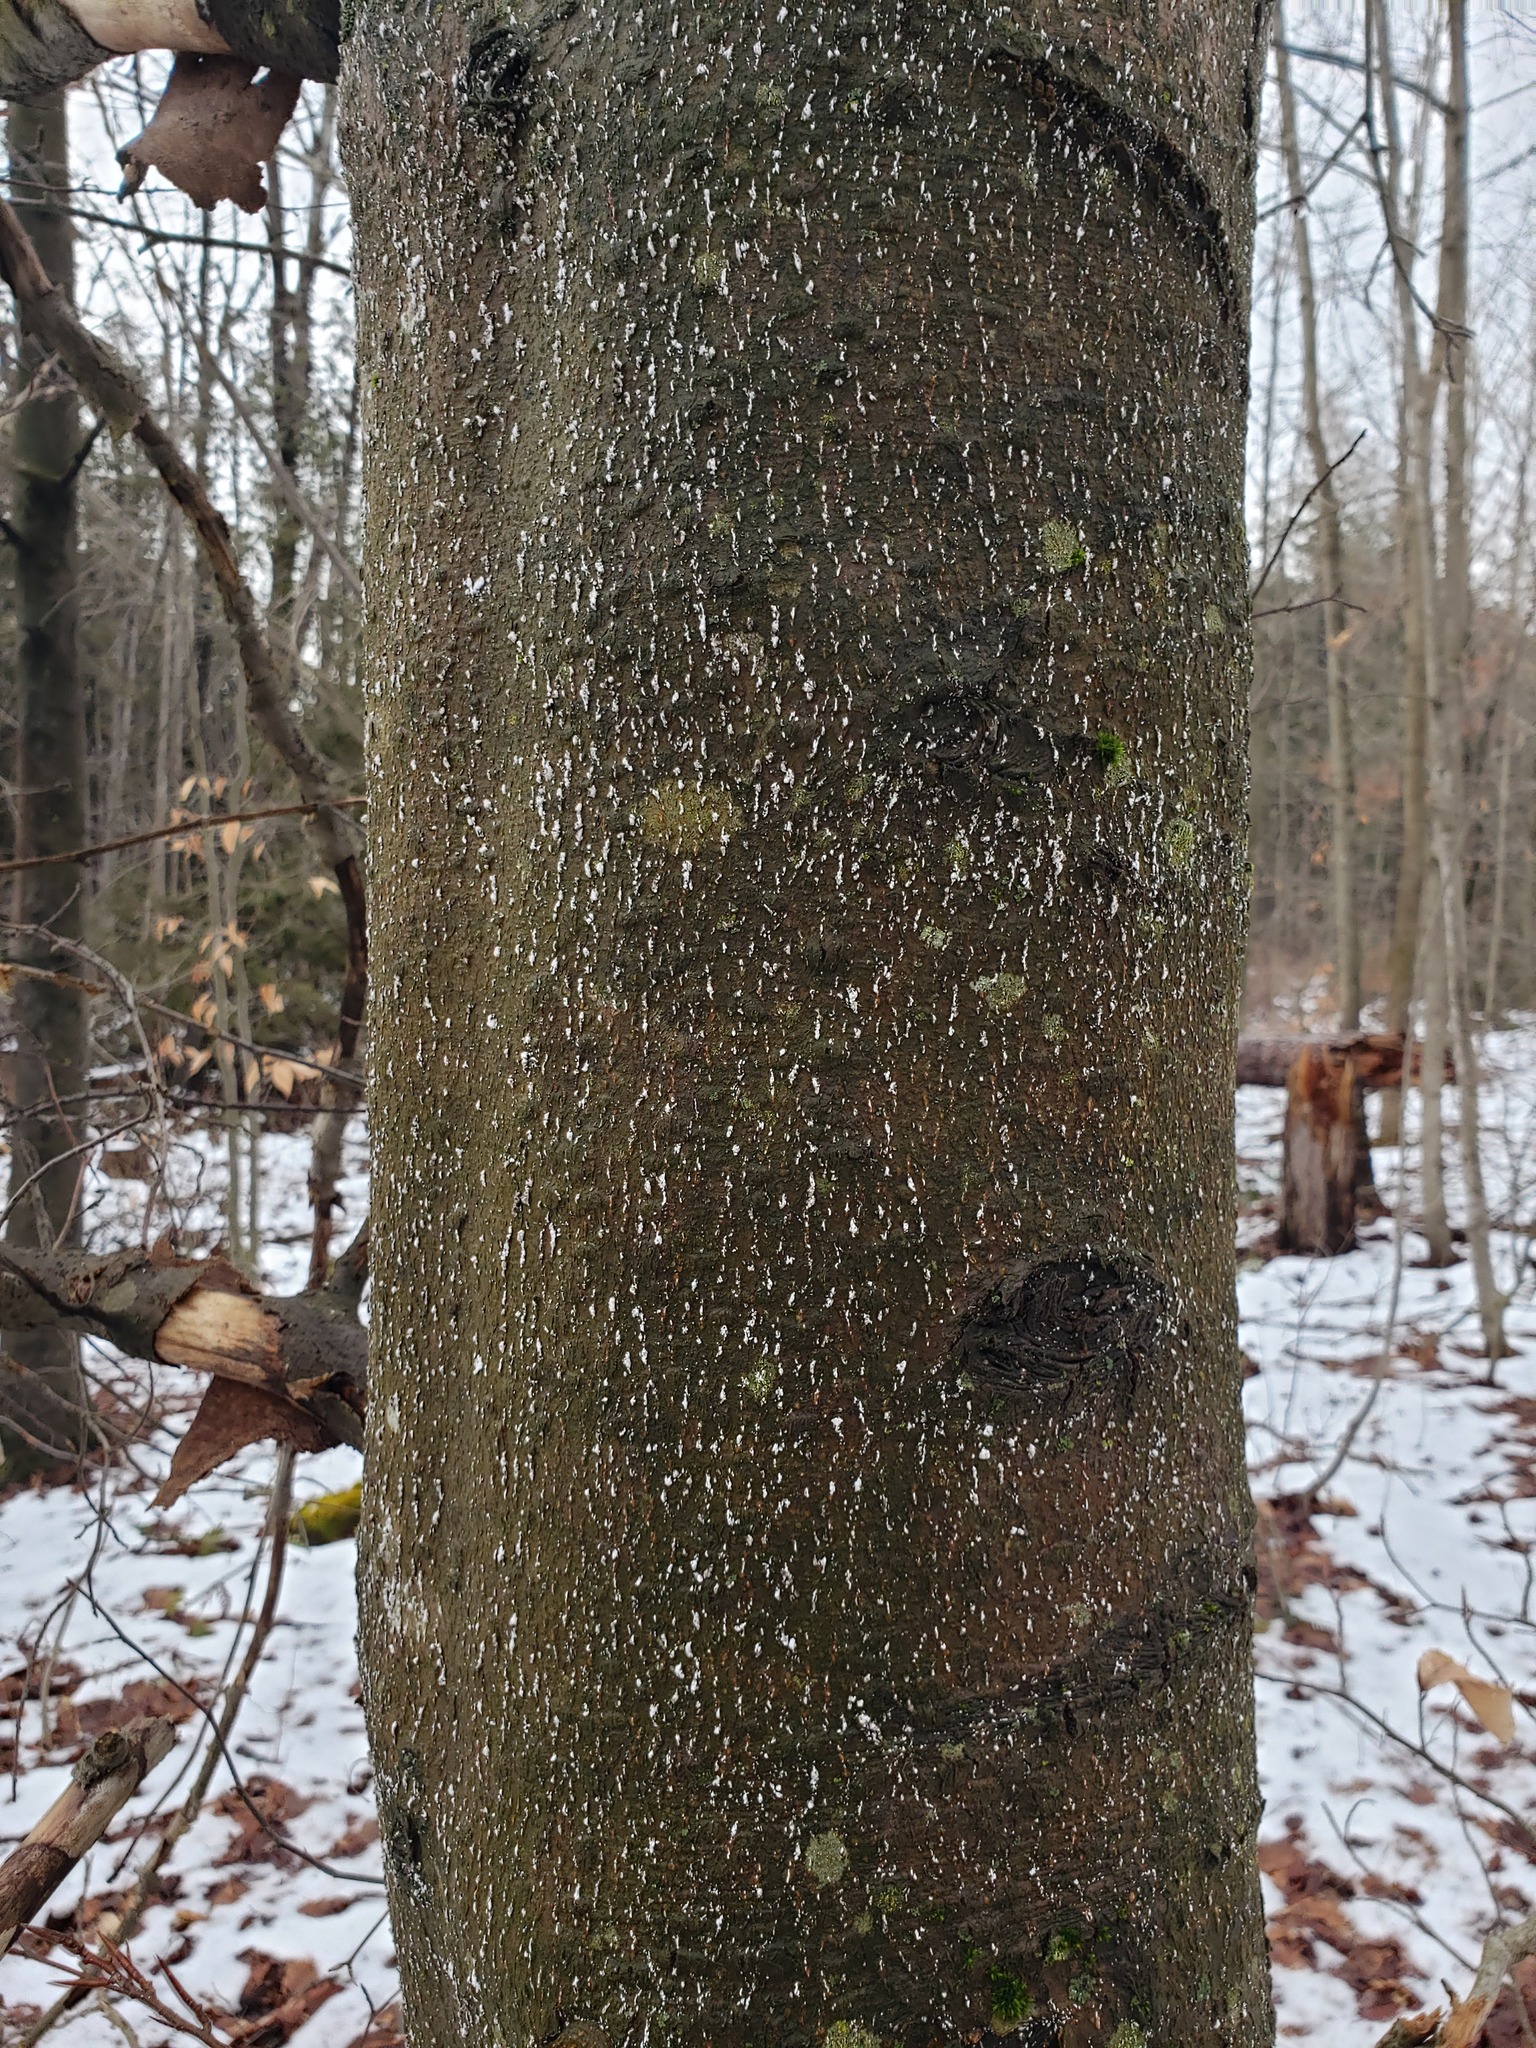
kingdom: Plantae
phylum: Tracheophyta
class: Magnoliopsida
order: Fagales
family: Fagaceae
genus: Fagus
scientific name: Fagus grandifolia
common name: American beech
